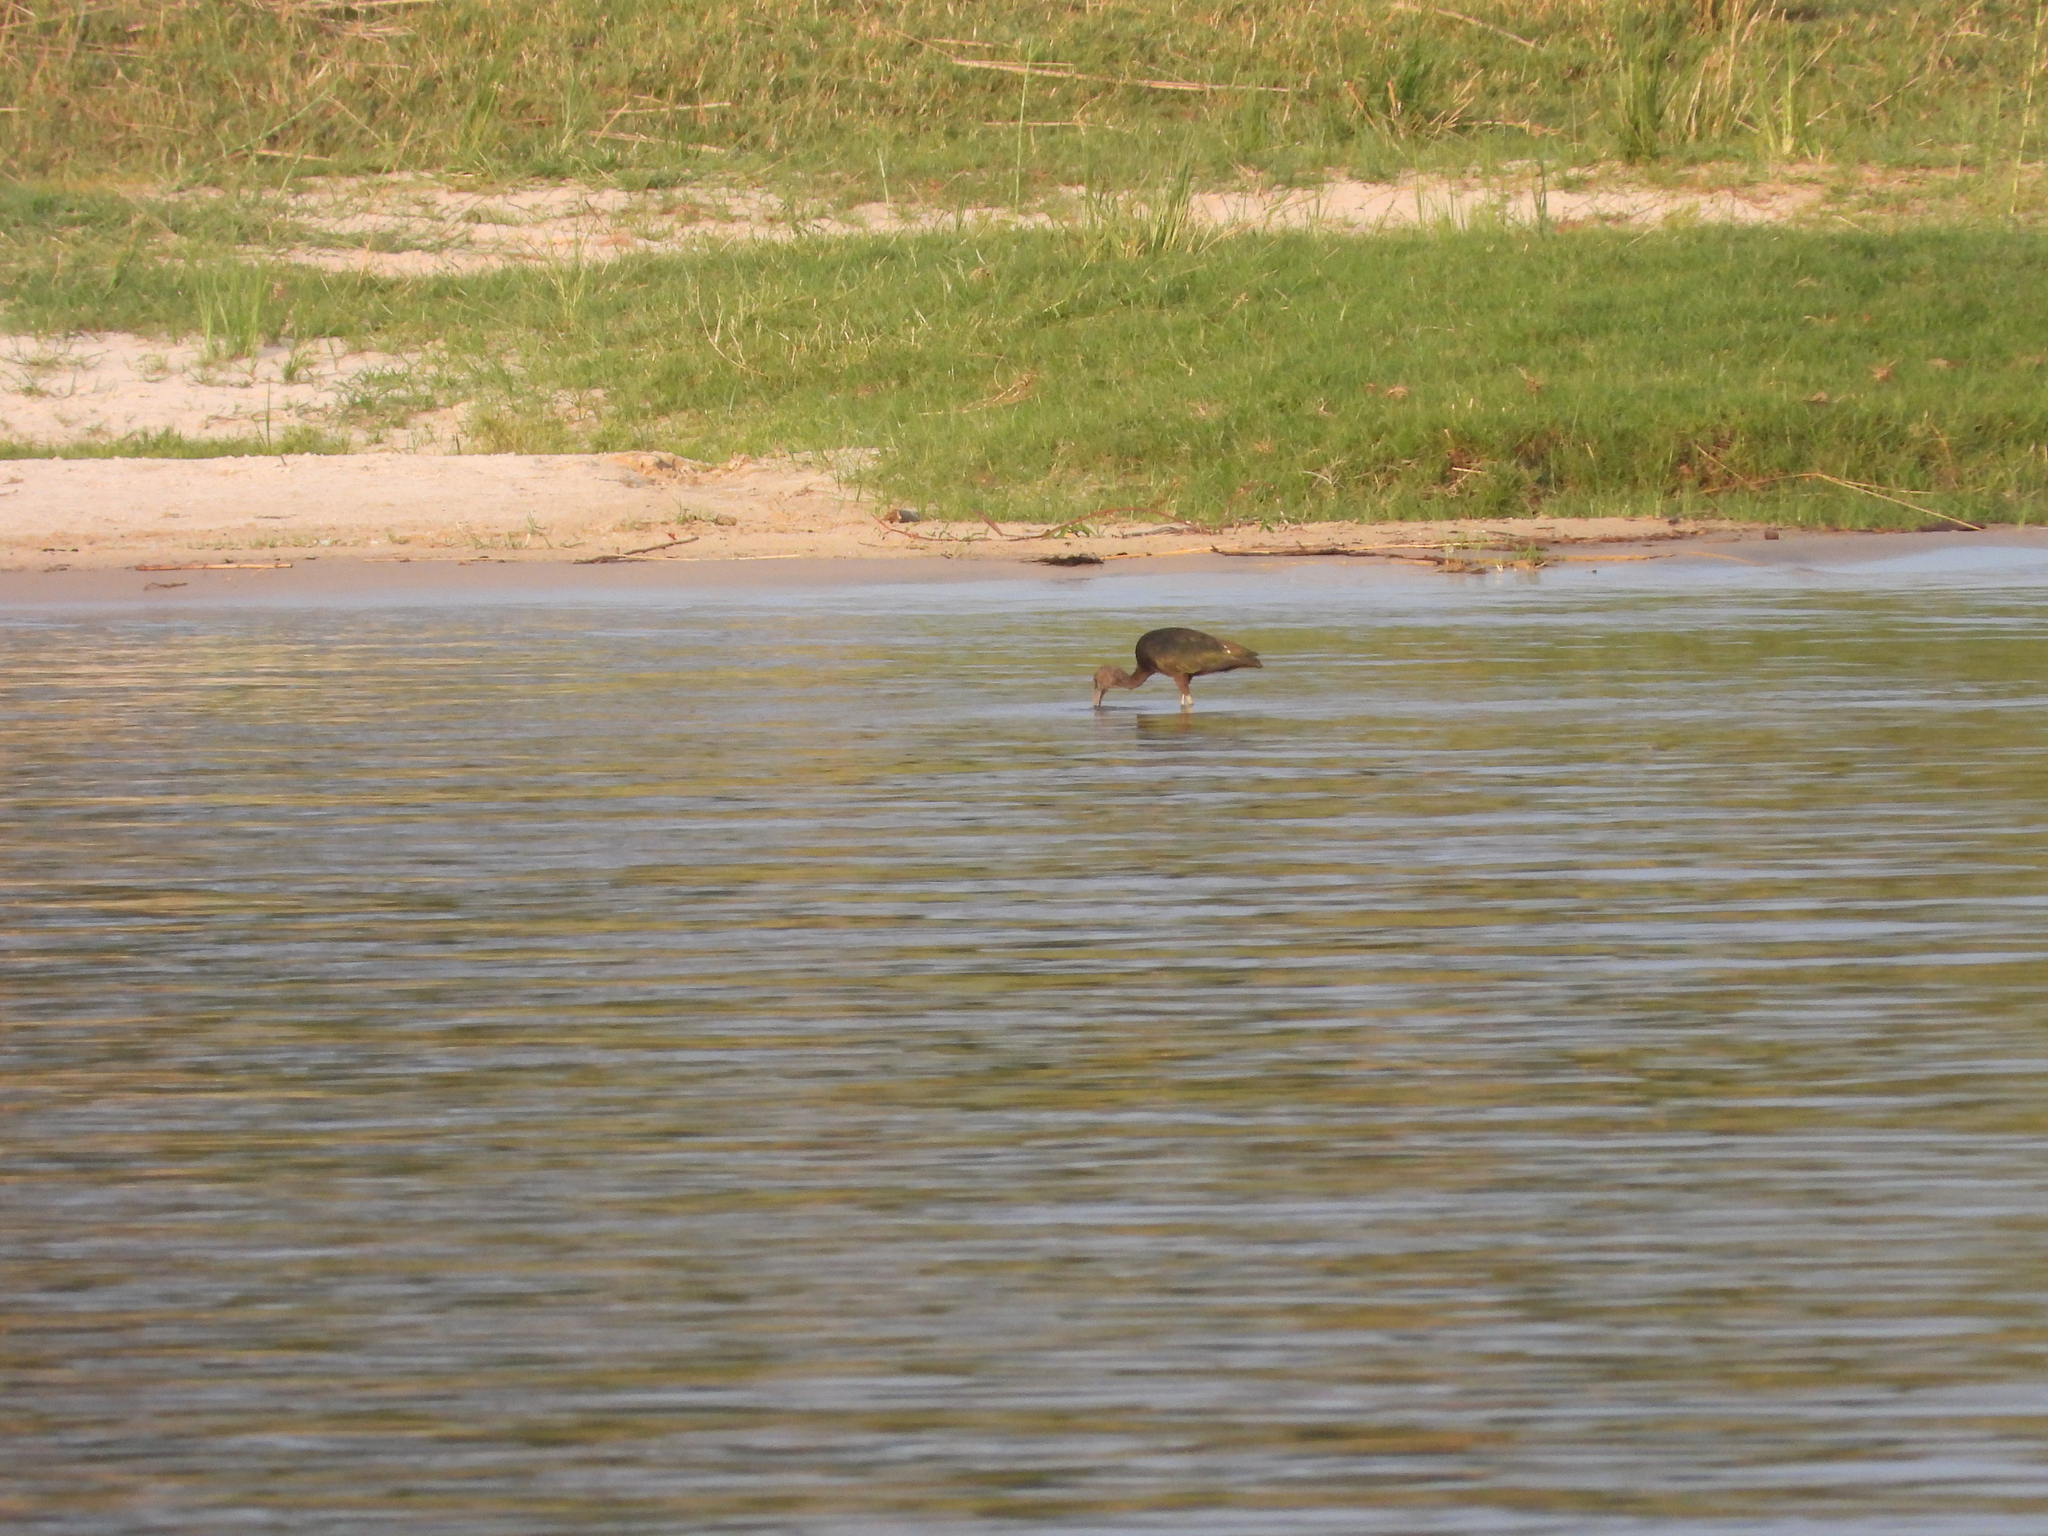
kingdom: Animalia
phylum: Chordata
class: Aves
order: Pelecaniformes
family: Threskiornithidae
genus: Plegadis
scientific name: Plegadis falcinellus
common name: Glossy ibis
